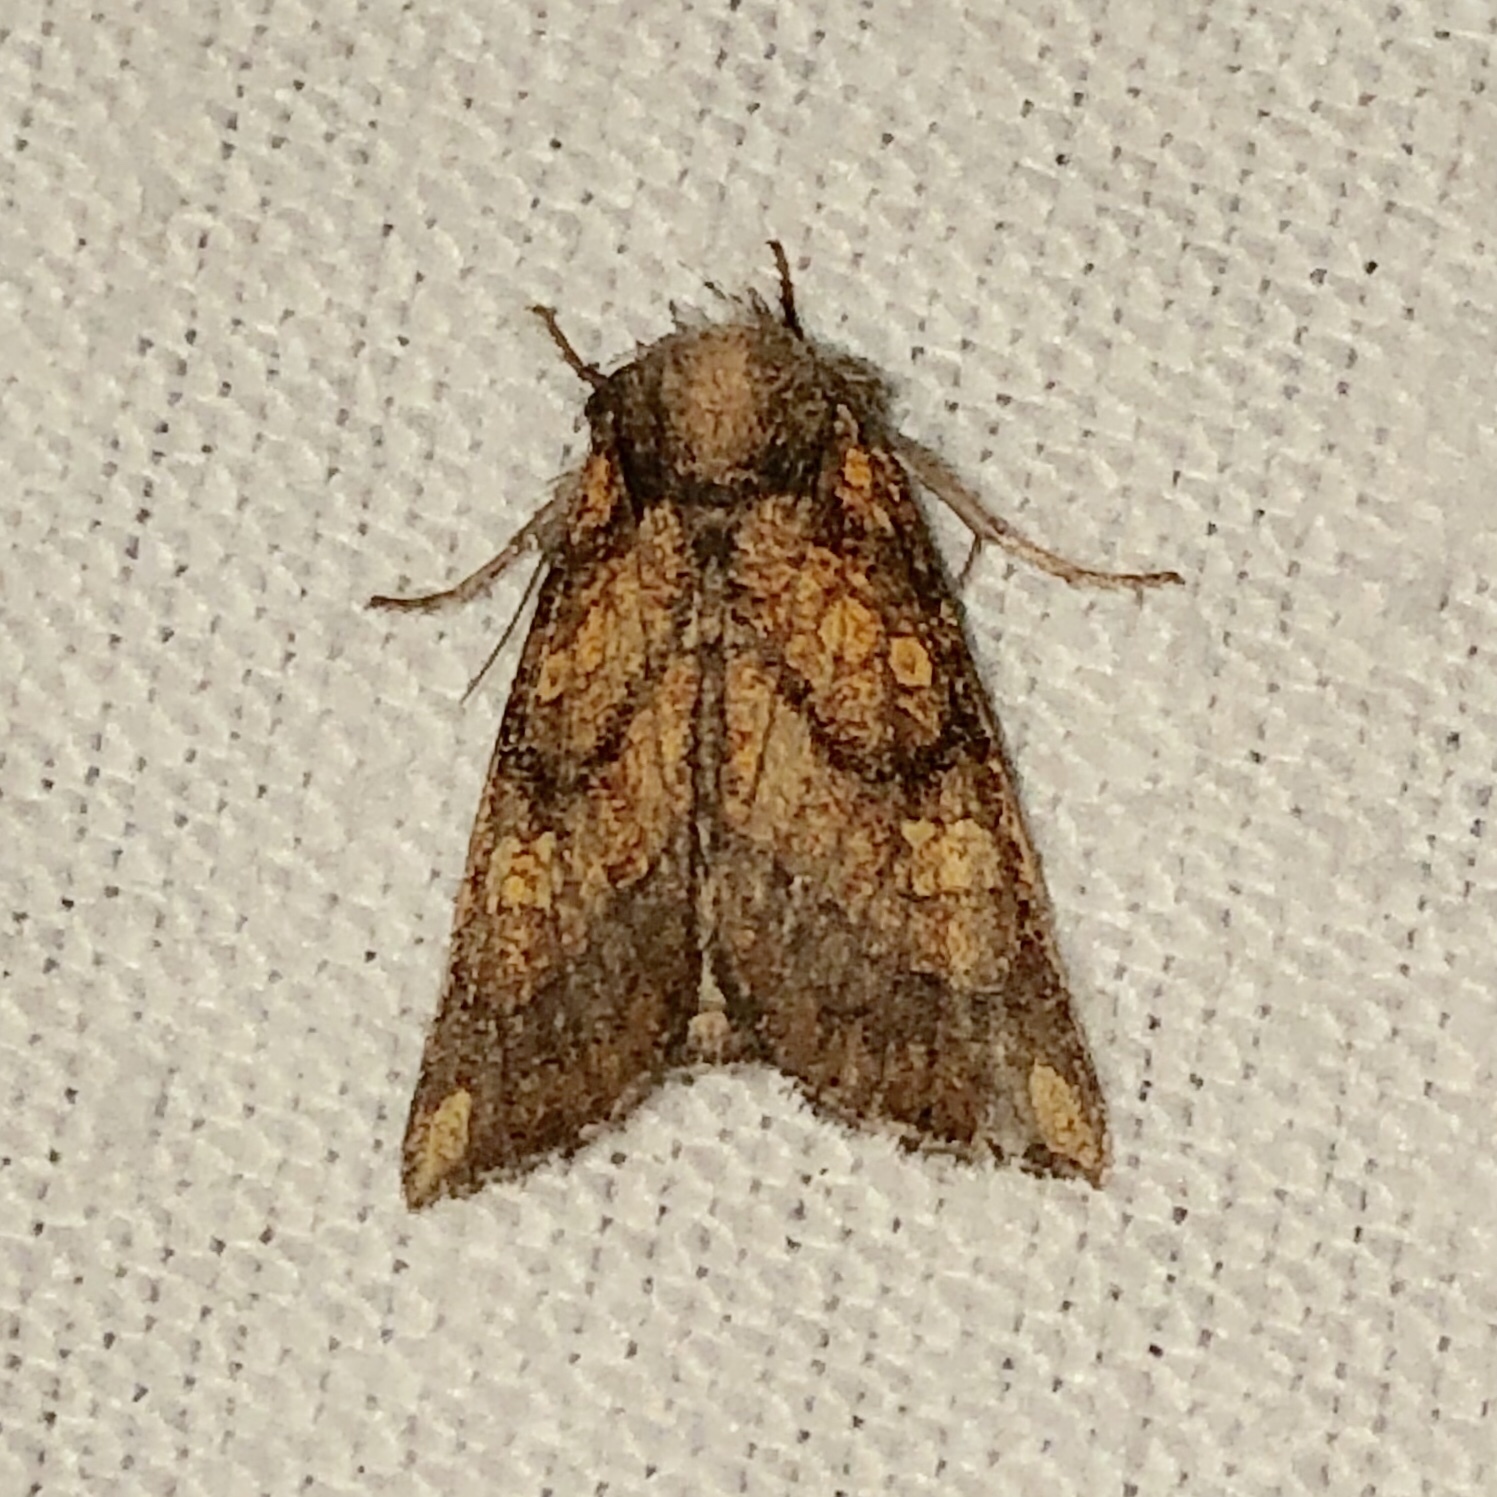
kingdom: Animalia
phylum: Arthropoda
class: Insecta
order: Lepidoptera
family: Noctuidae
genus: Papaipema
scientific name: Papaipema impecuniosa
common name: Aster borer moth
